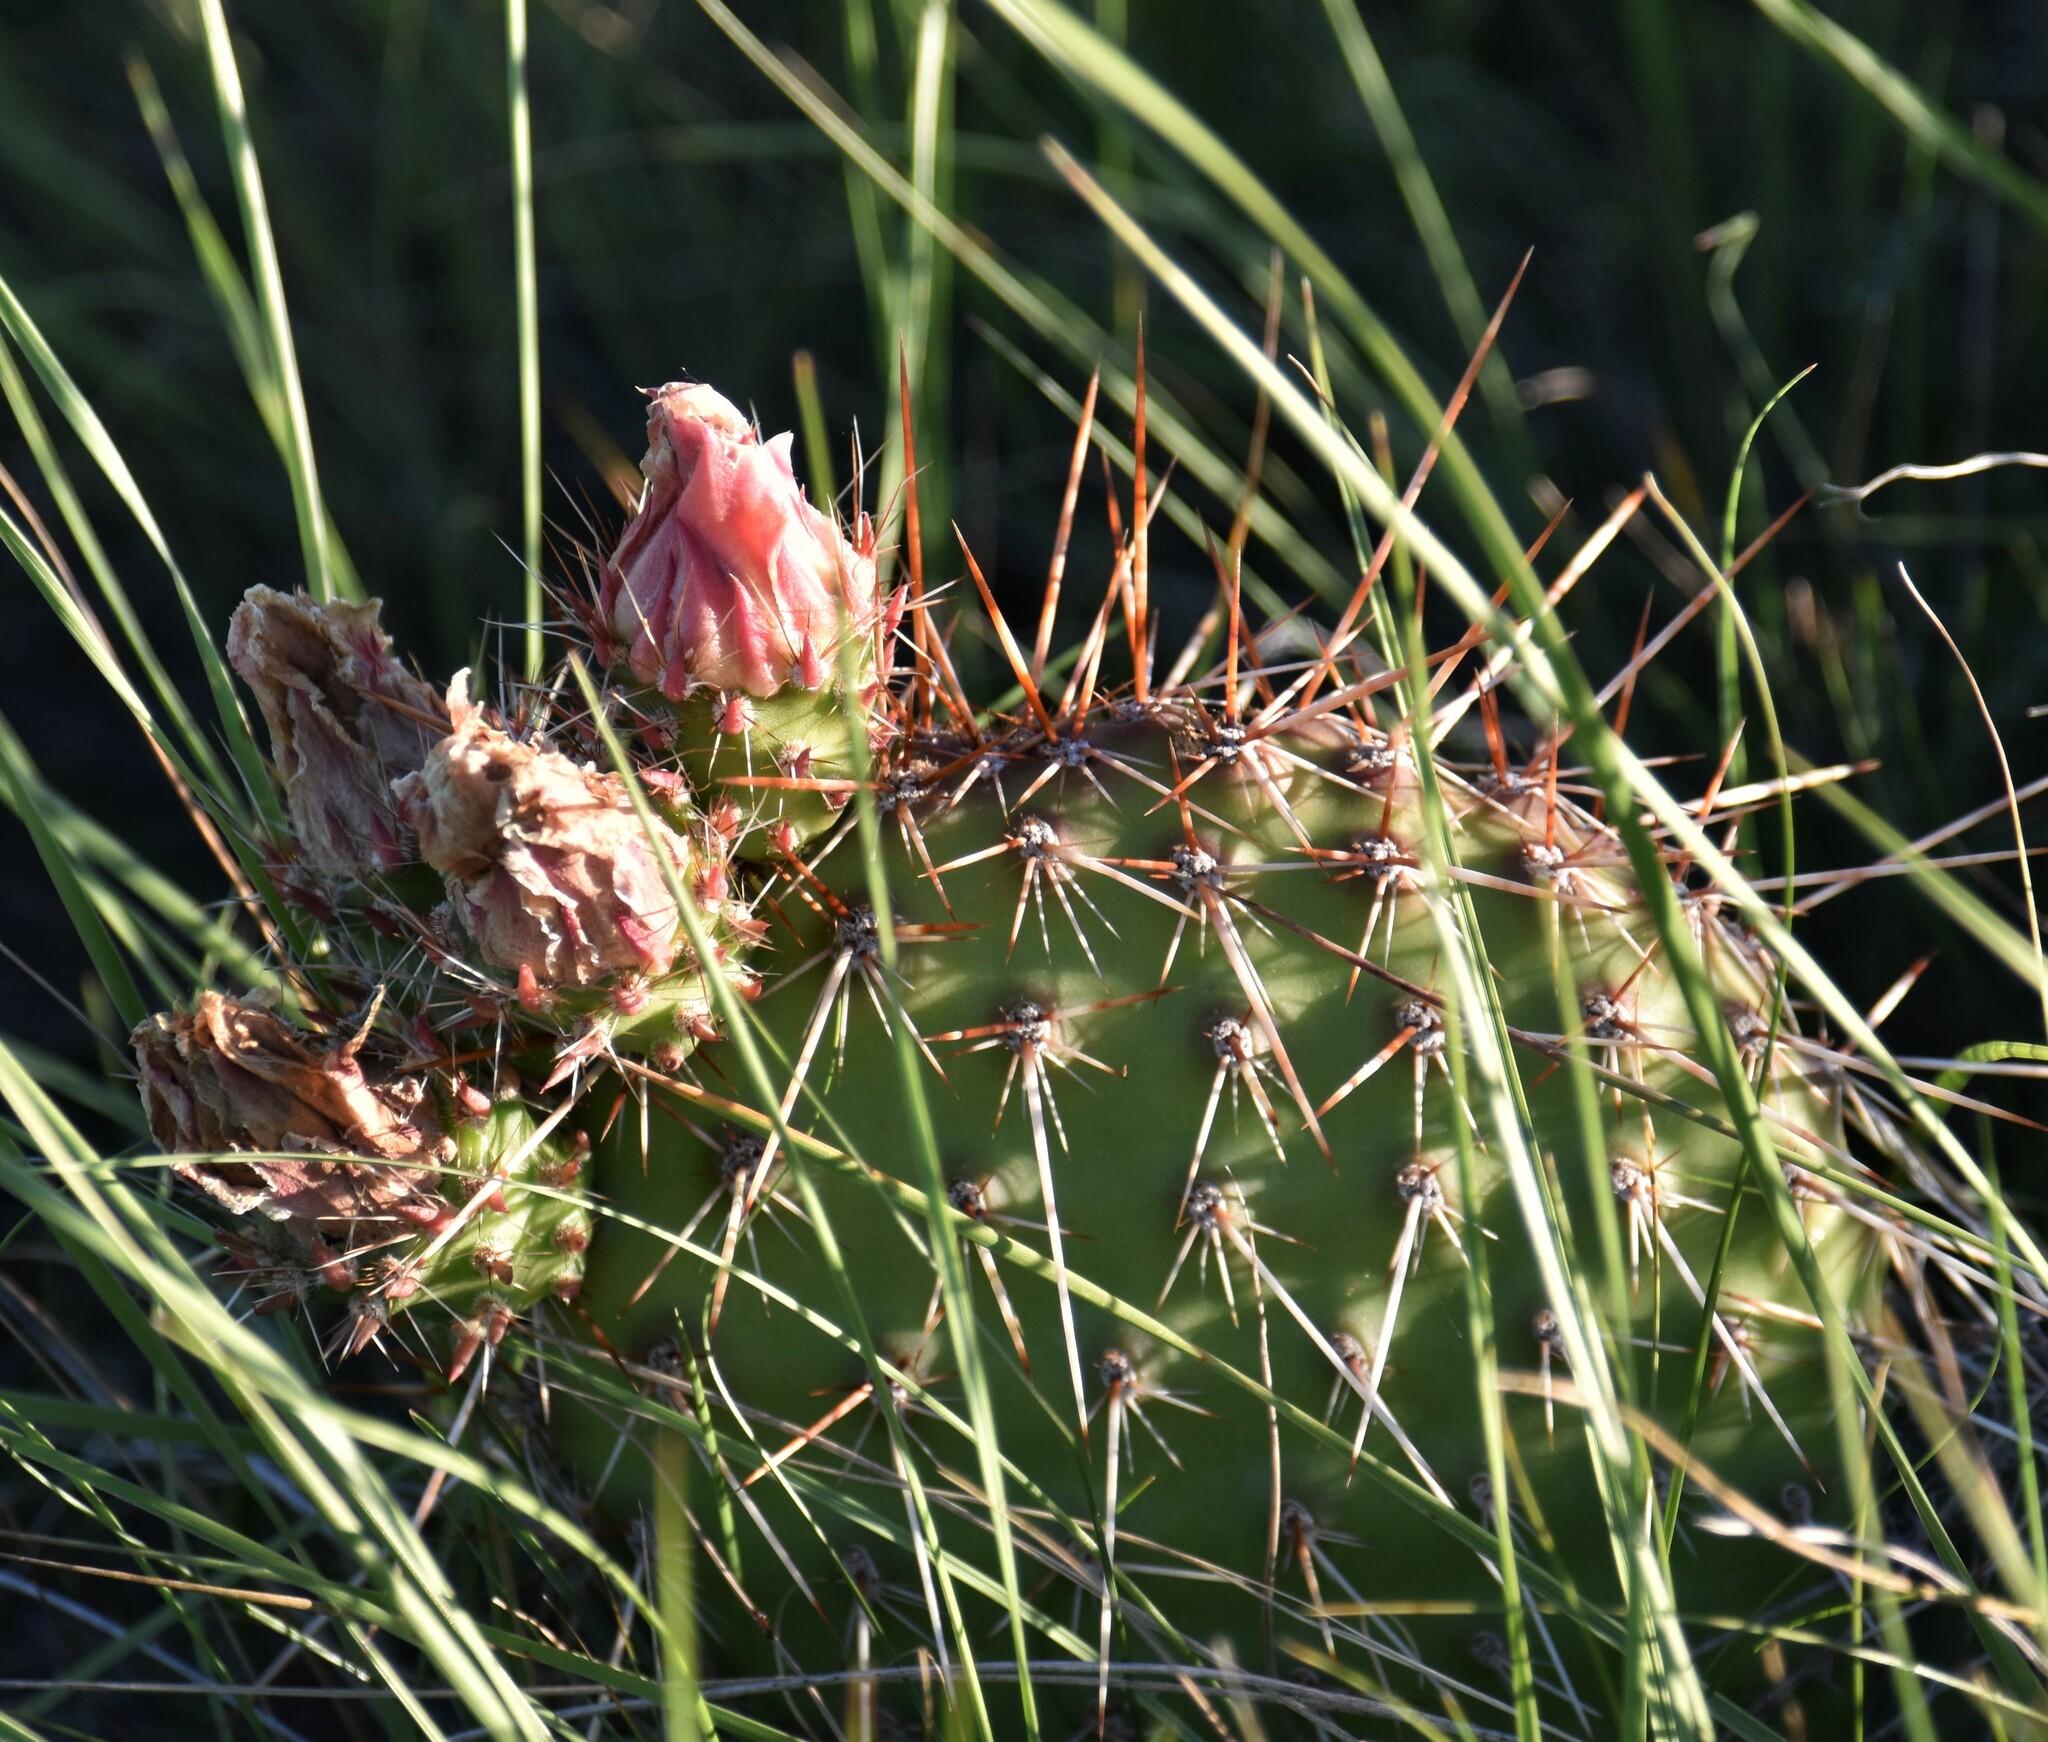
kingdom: Plantae
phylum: Tracheophyta
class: Magnoliopsida
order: Caryophyllales
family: Cactaceae
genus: Opuntia
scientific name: Opuntia polyacantha
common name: Plains prickly-pear
